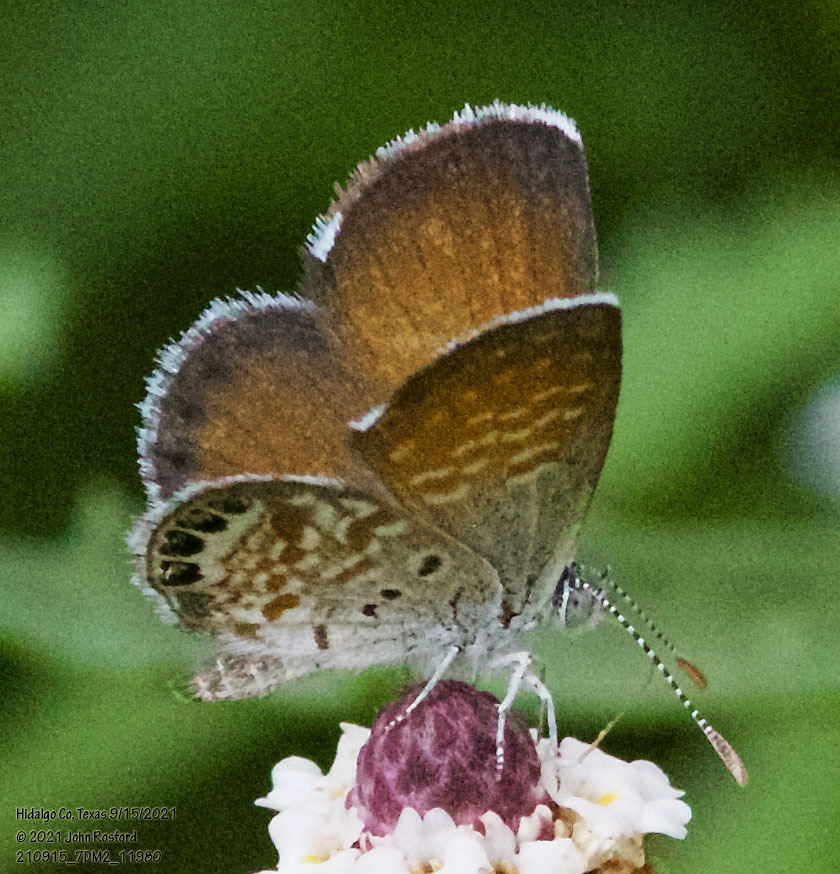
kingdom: Animalia
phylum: Arthropoda
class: Insecta
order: Lepidoptera
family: Lycaenidae
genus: Brephidium
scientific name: Brephidium exilis
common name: Pygmy blue
